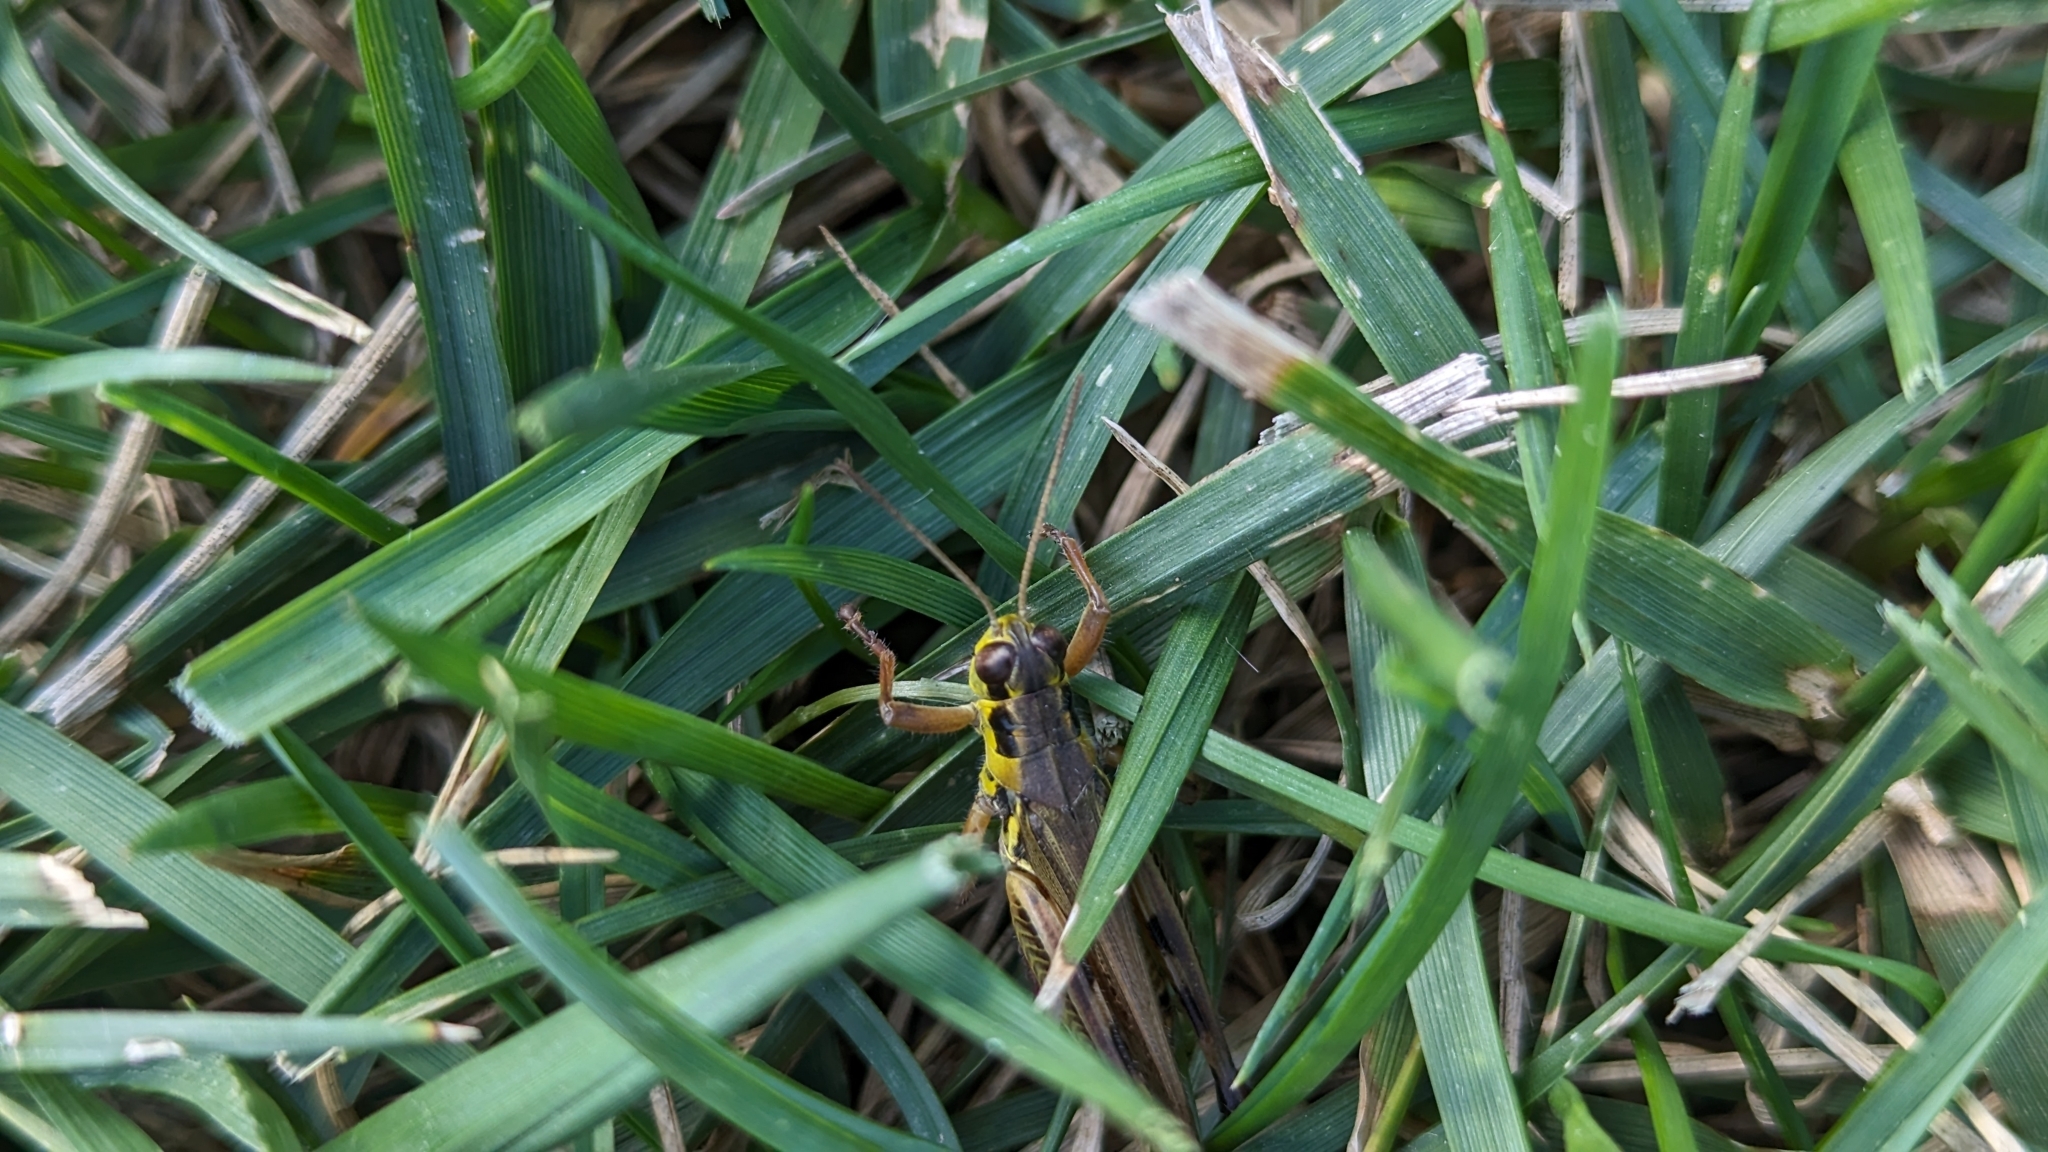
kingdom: Animalia
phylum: Arthropoda
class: Insecta
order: Orthoptera
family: Acrididae
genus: Melanoplus
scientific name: Melanoplus femurrubrum
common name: Red-legged grasshopper
